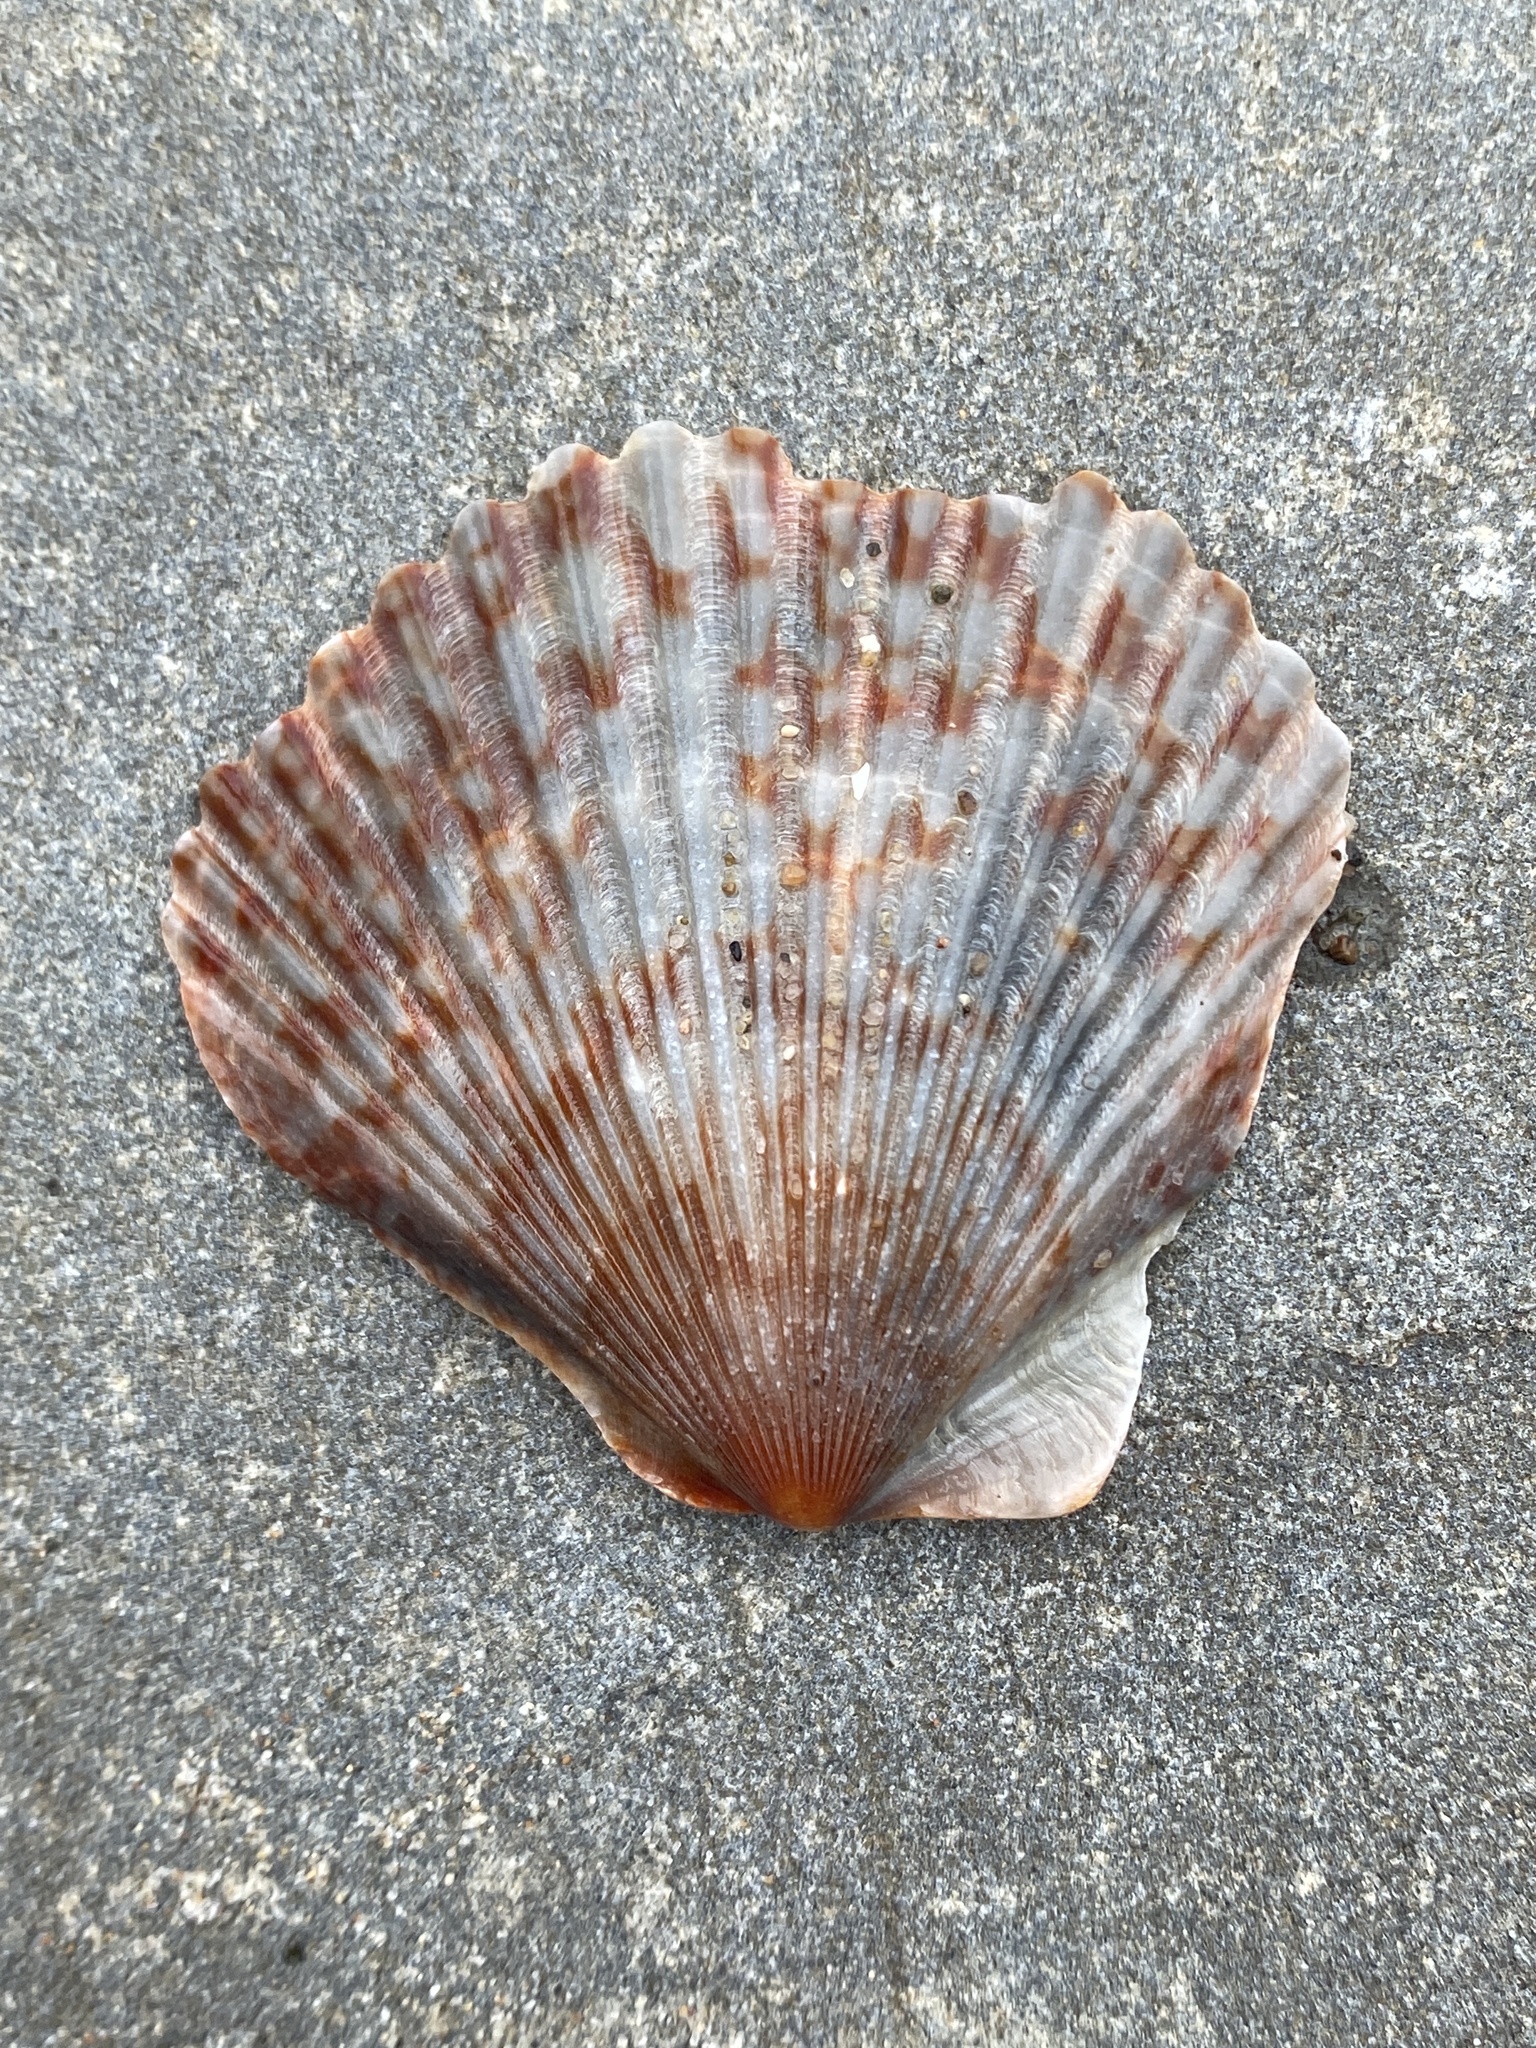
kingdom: Animalia
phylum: Mollusca
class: Bivalvia
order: Pectinida
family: Pectinidae
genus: Argopecten
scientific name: Argopecten ventricosus
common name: Catarina scallop
